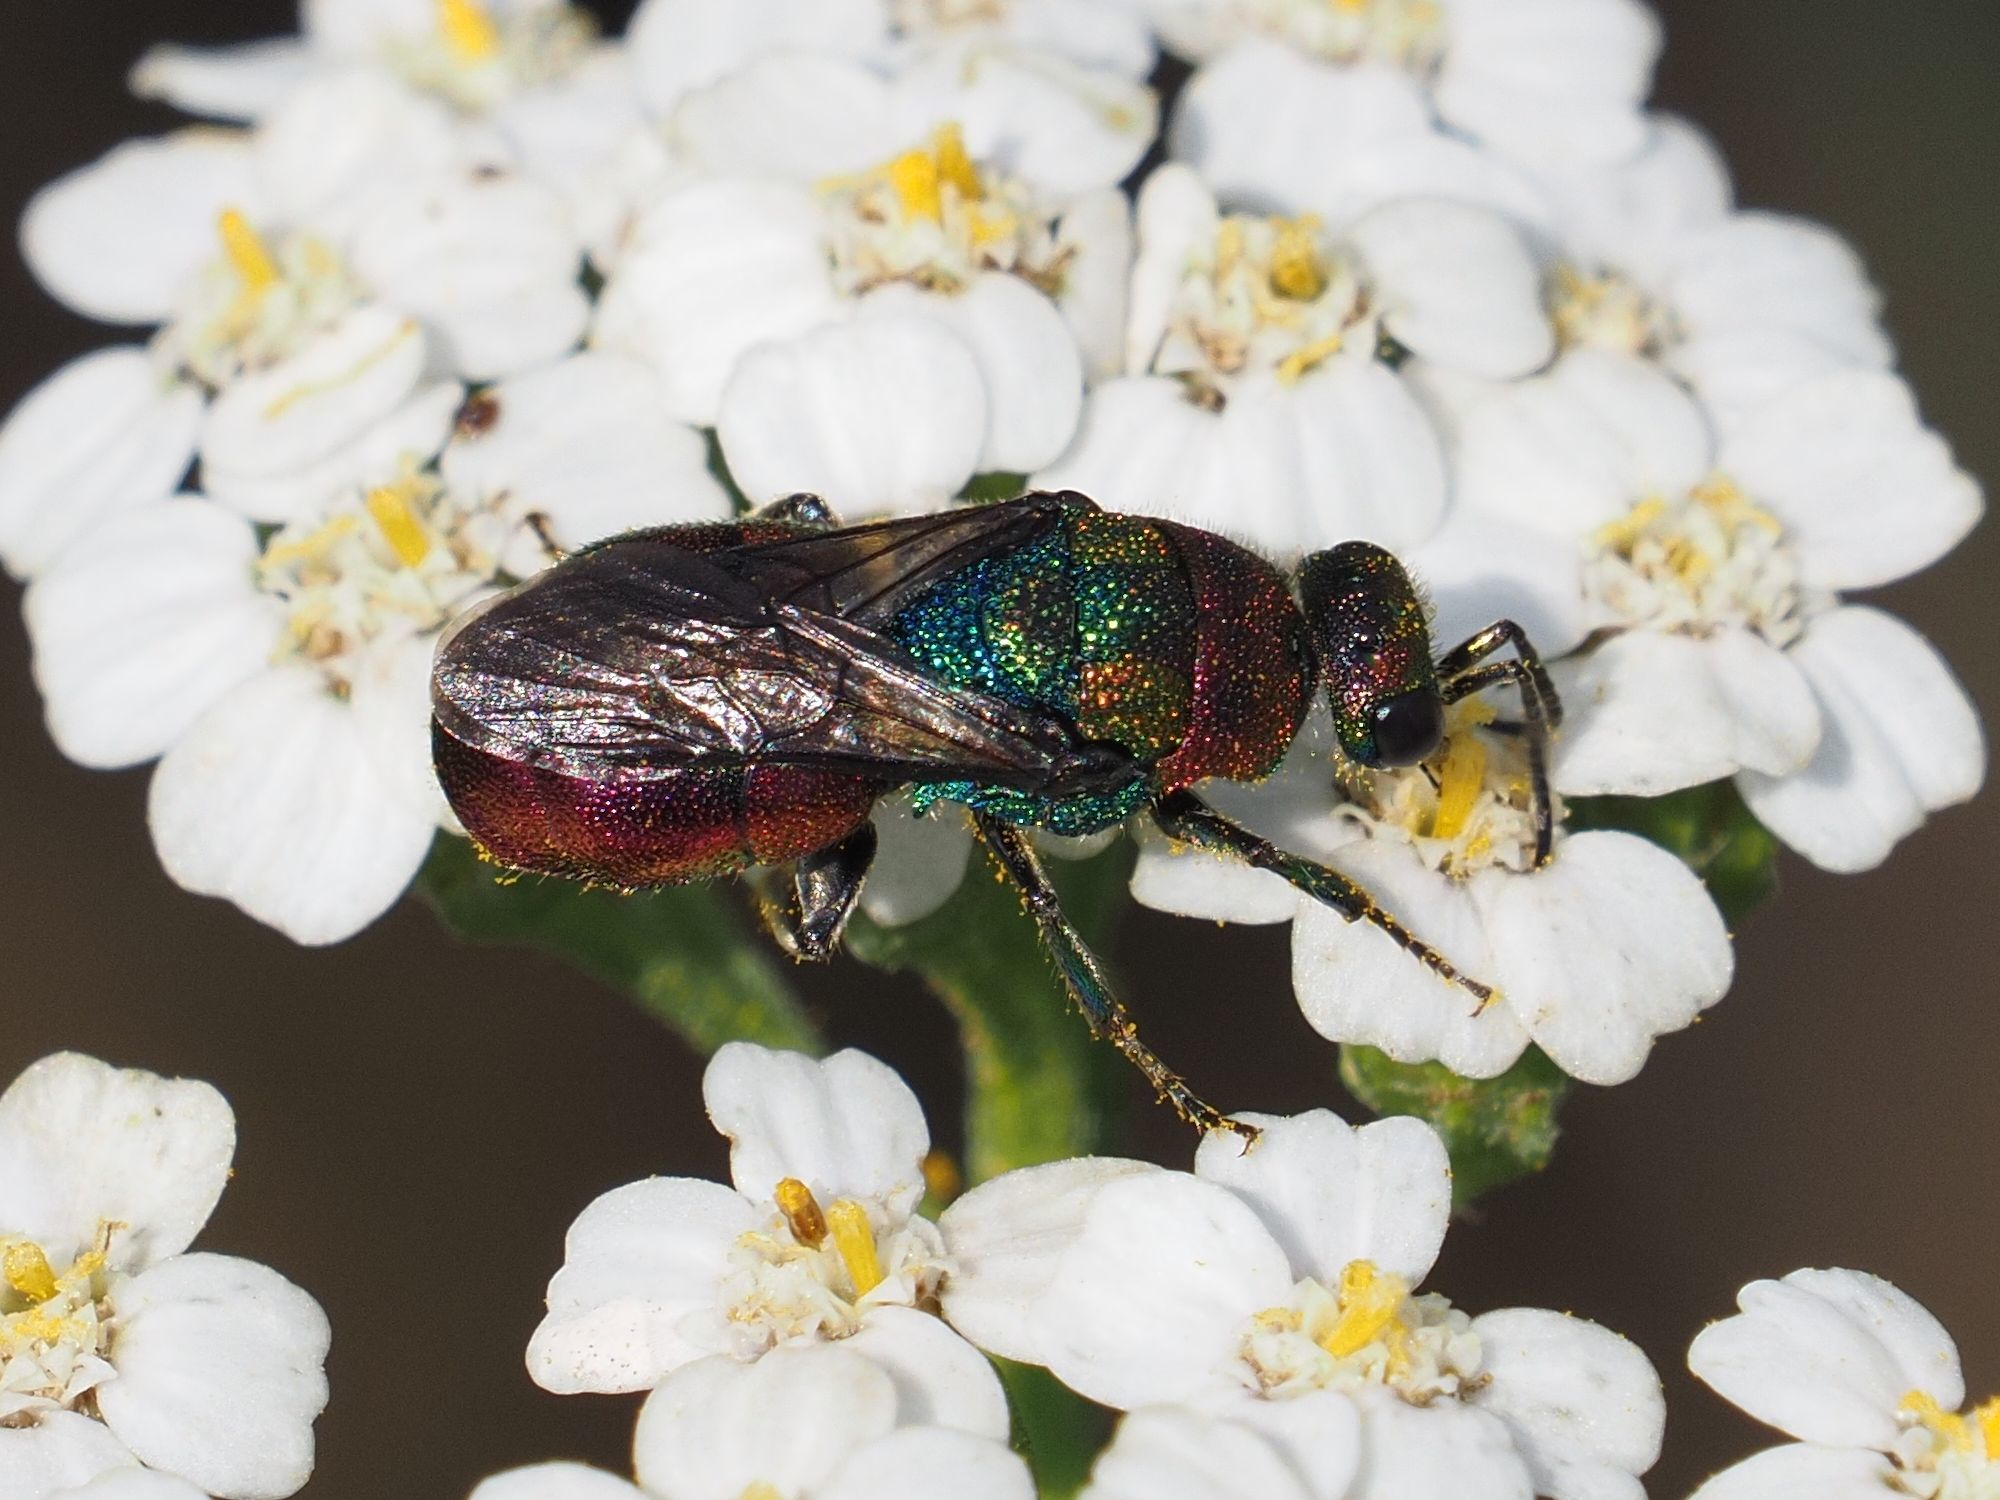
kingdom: Animalia
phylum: Arthropoda
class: Insecta
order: Hymenoptera
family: Chrysididae
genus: Hedychrum
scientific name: Hedychrum rutilans
